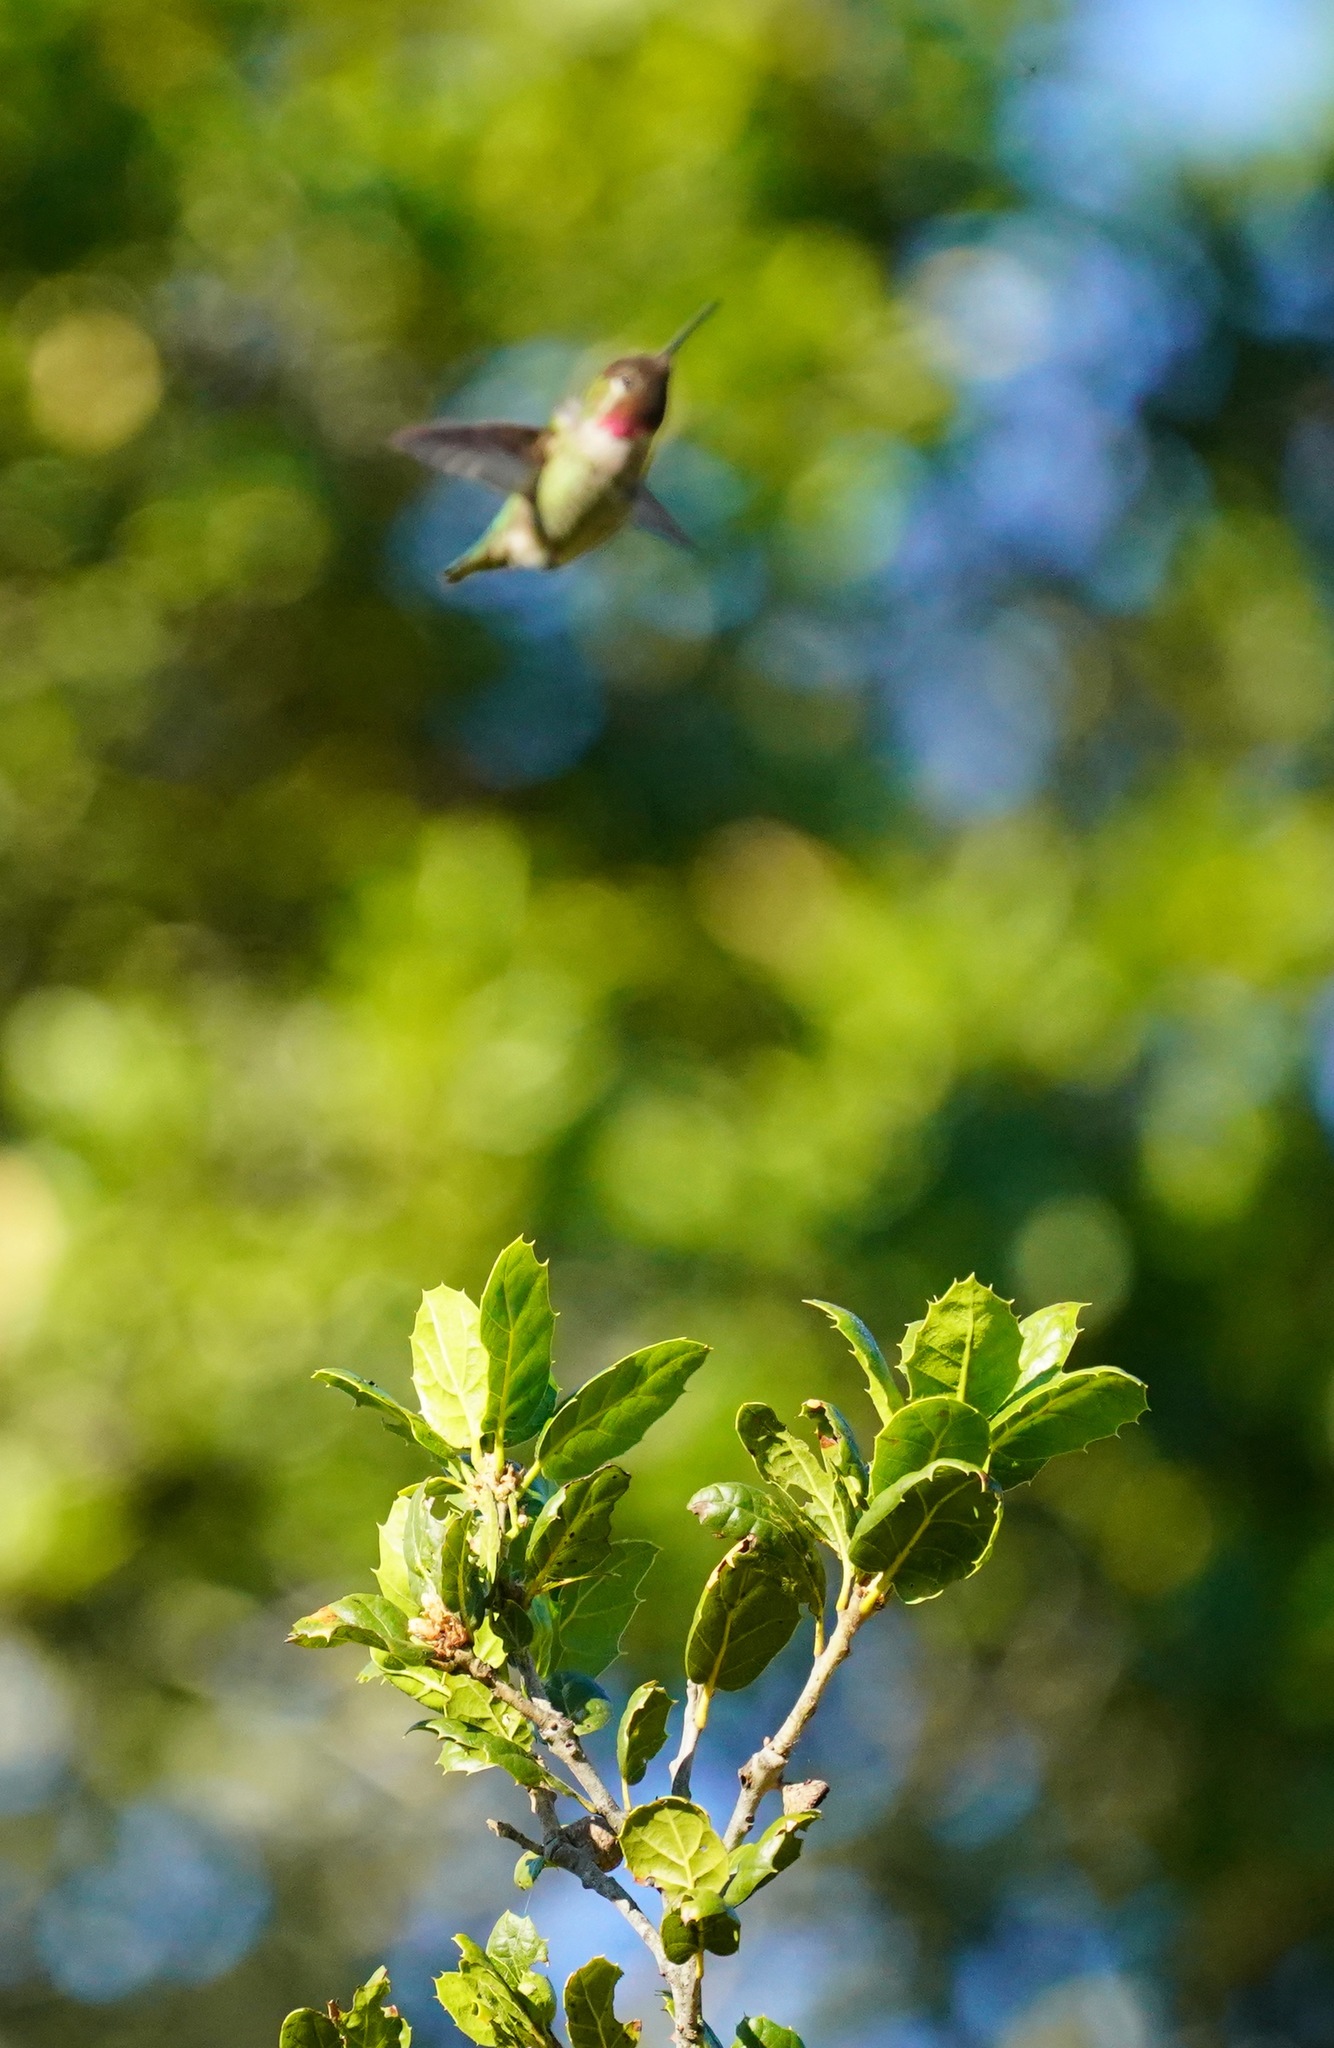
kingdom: Animalia
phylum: Chordata
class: Aves
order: Apodiformes
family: Trochilidae
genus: Calypte
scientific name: Calypte anna
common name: Anna's hummingbird
